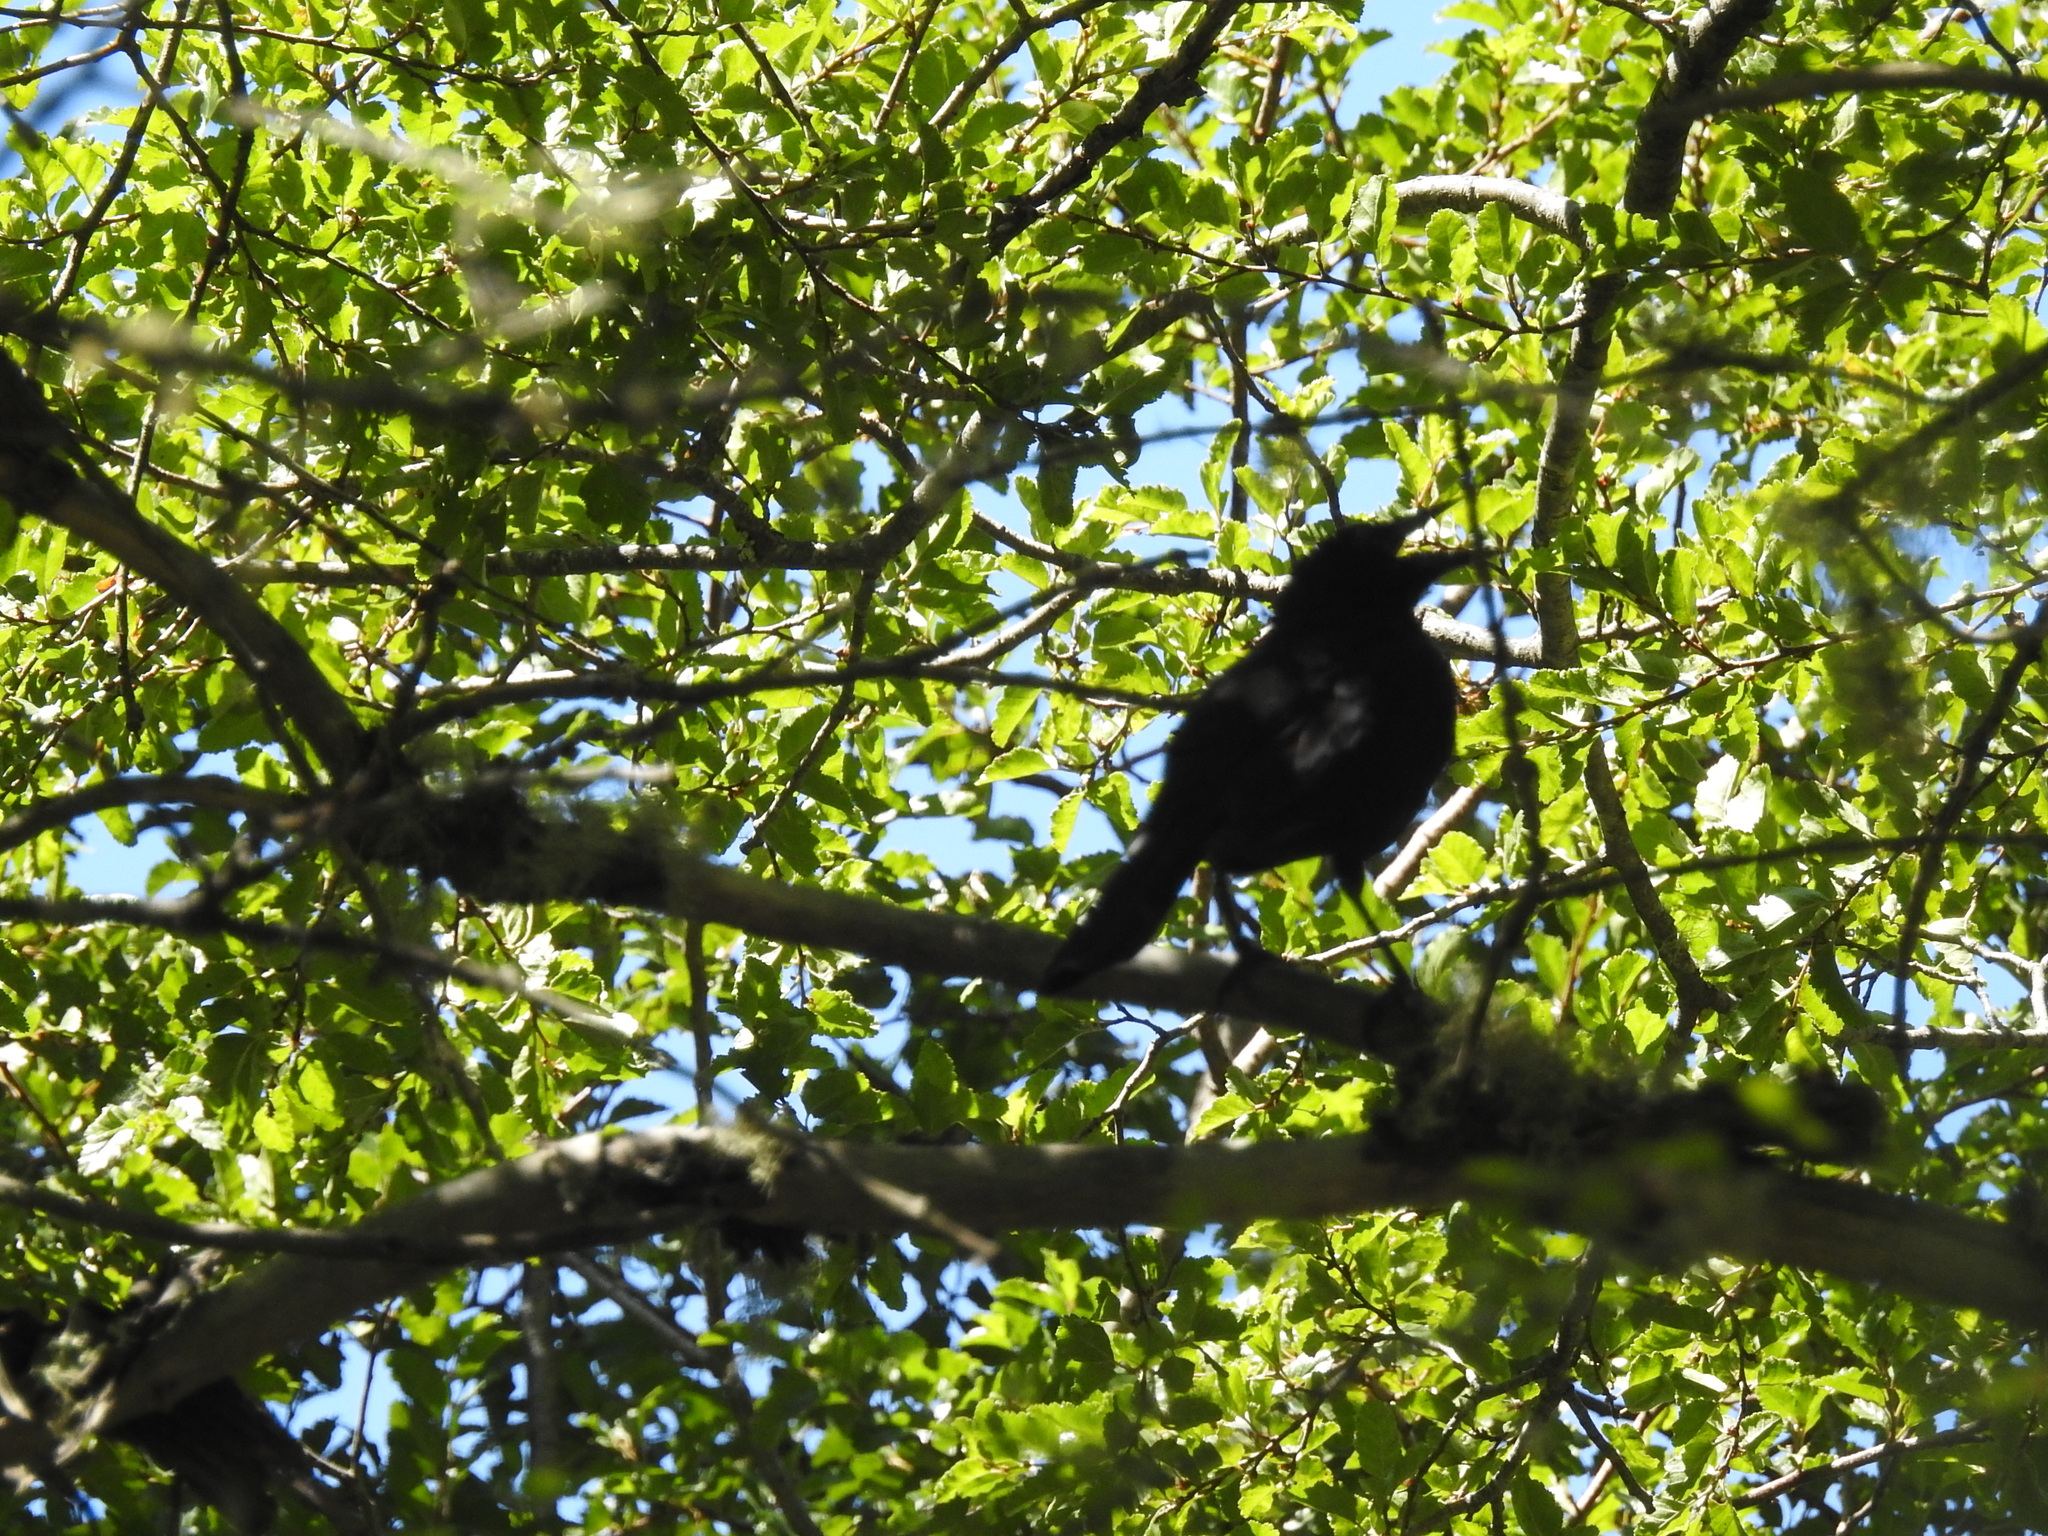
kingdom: Animalia
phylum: Chordata
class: Aves
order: Passeriformes
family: Icteridae
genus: Curaeus
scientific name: Curaeus curaeus
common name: Austral blackbird
